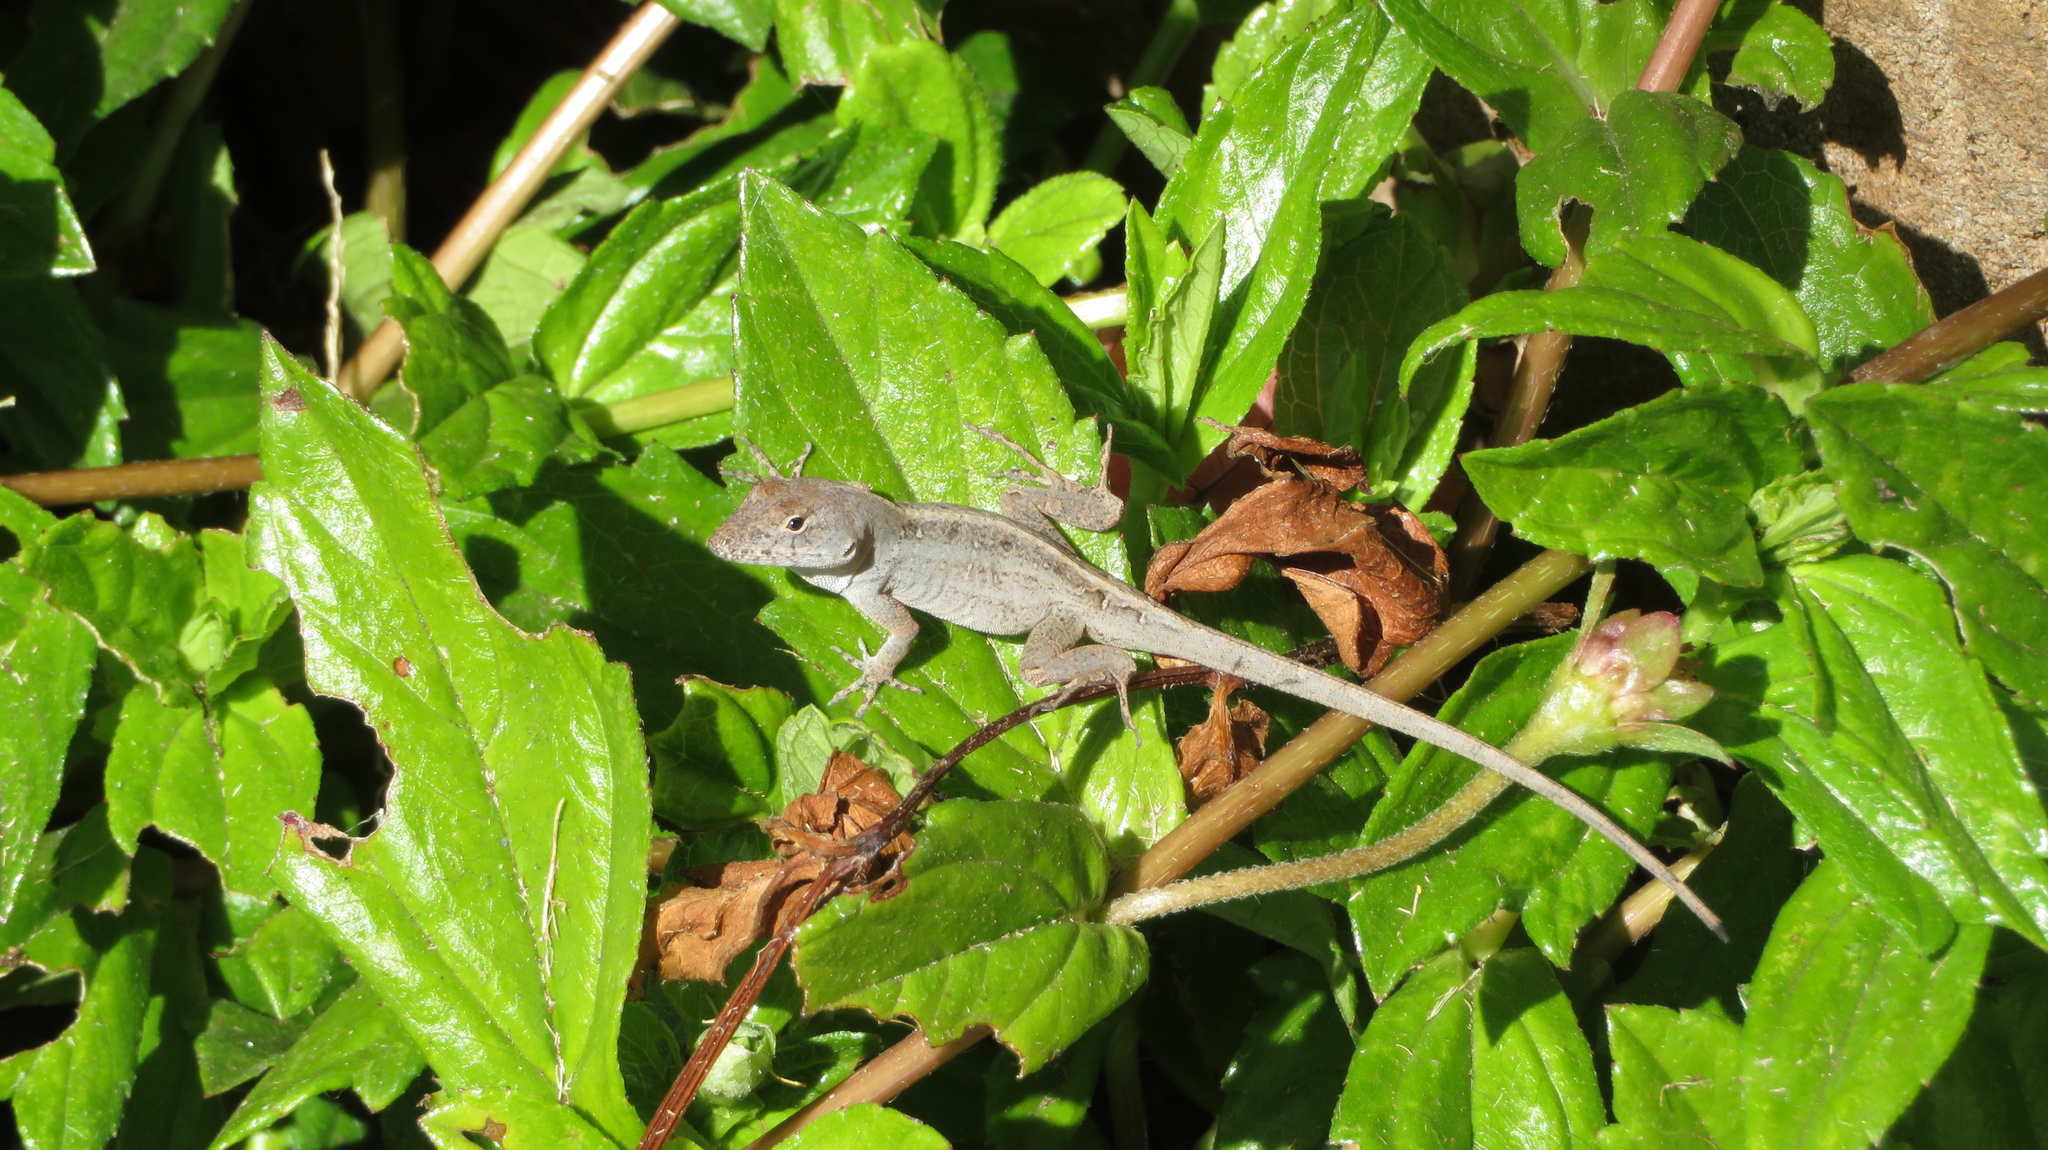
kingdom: Animalia
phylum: Chordata
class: Squamata
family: Dactyloidae
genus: Anolis
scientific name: Anolis sagrei
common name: Brown anole
